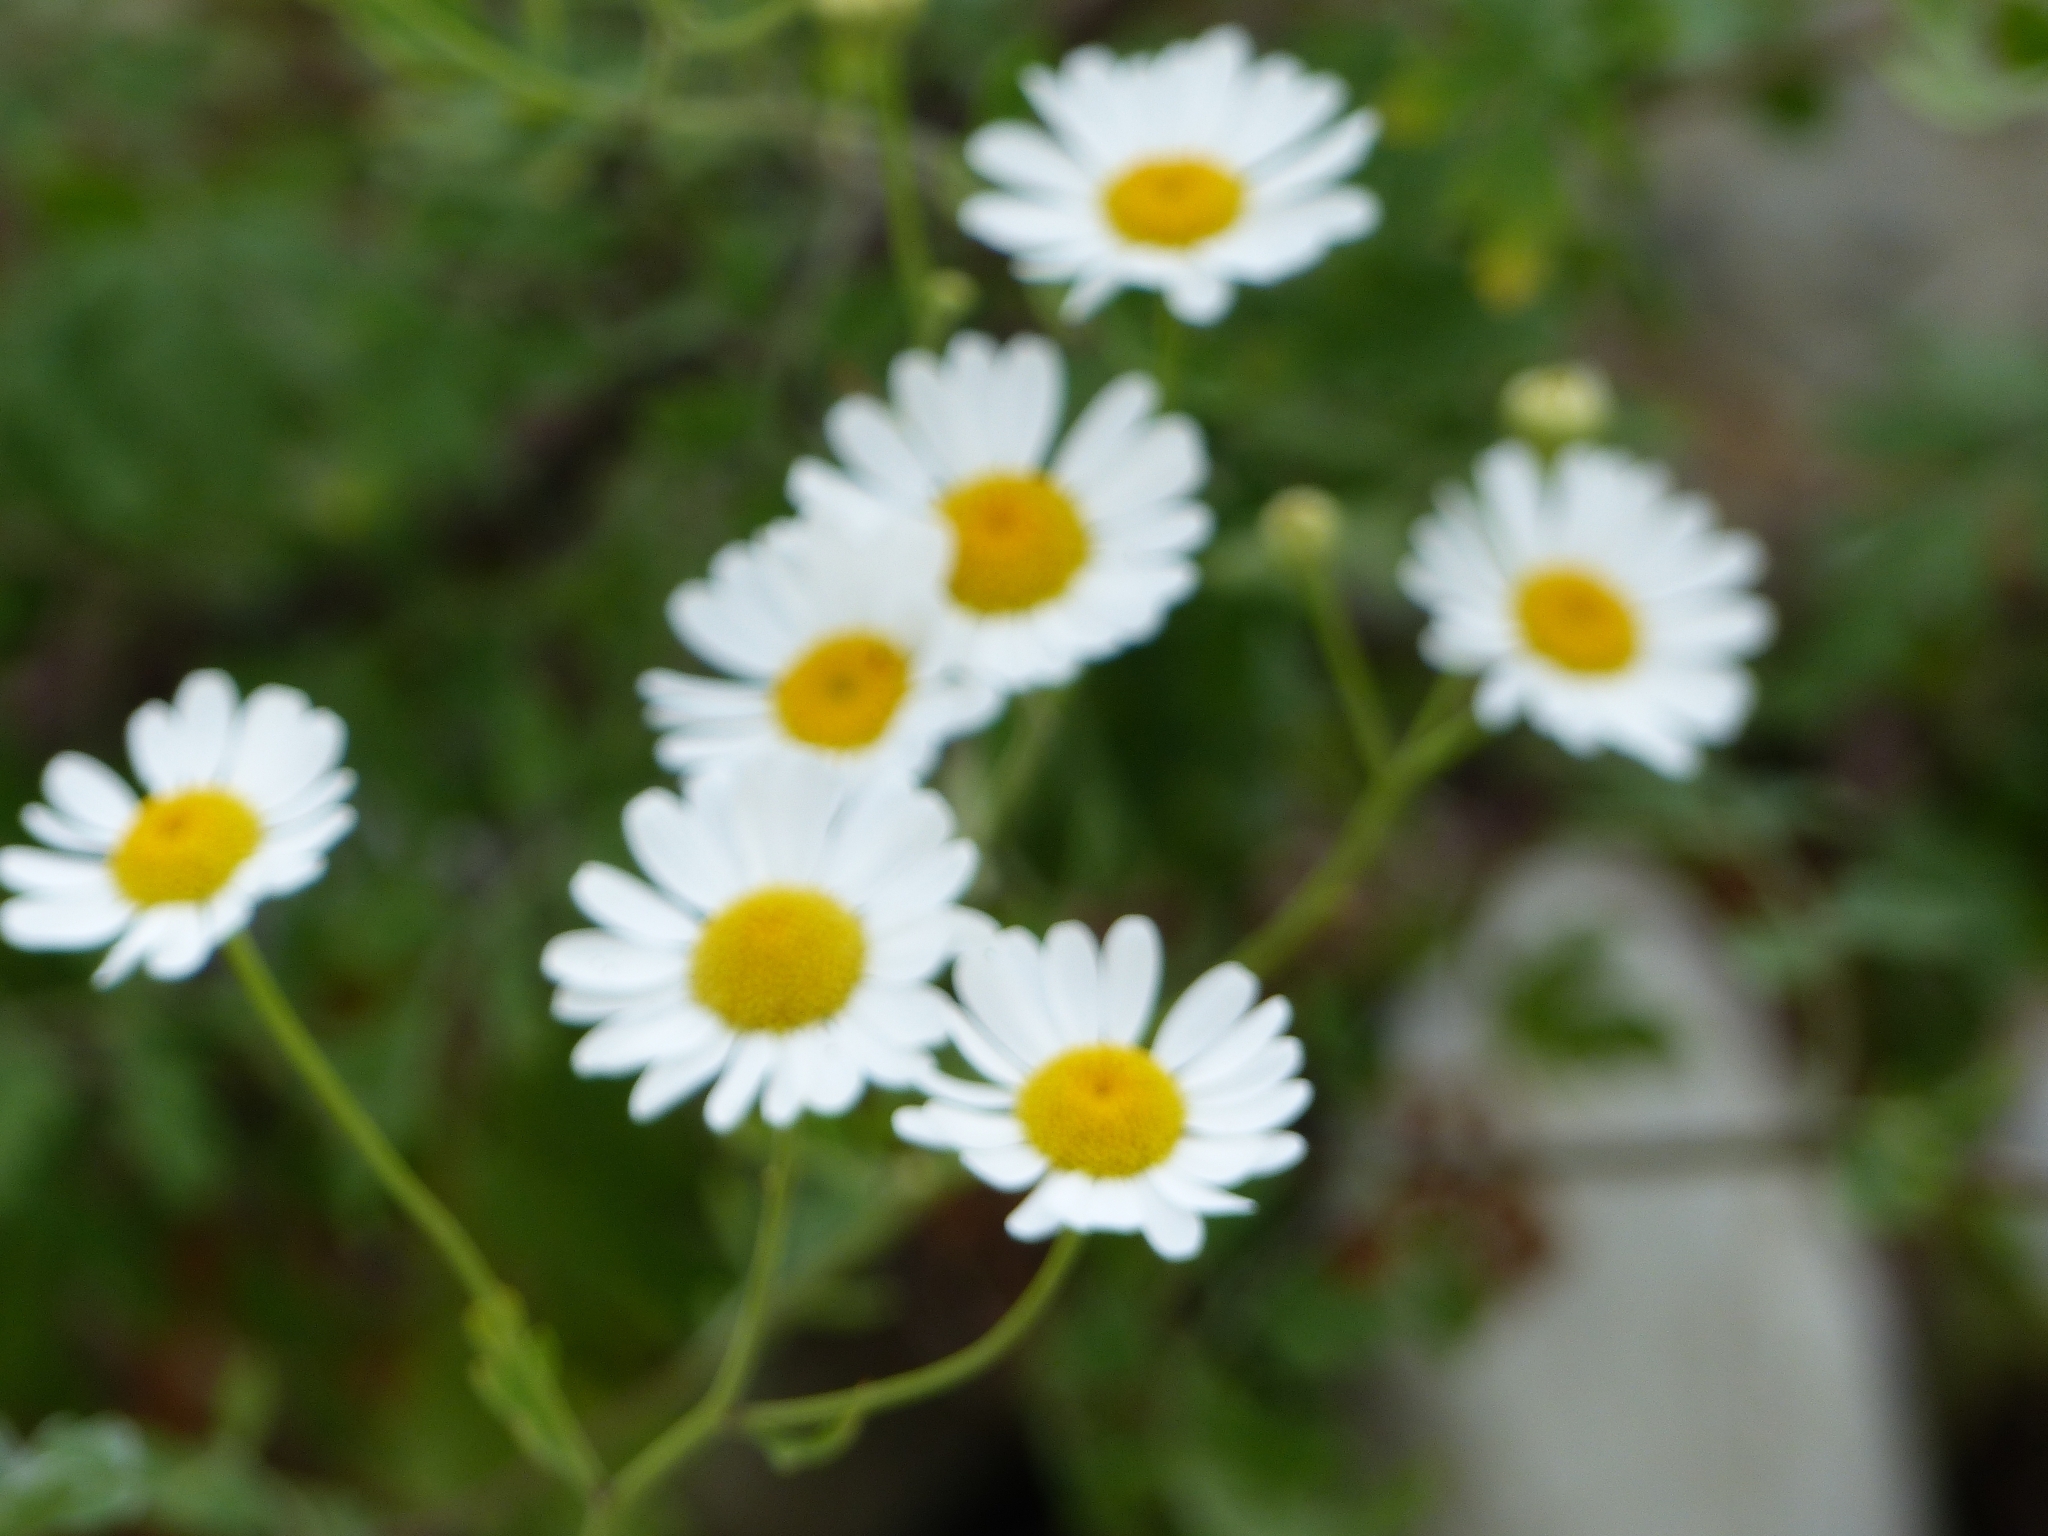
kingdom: Plantae
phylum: Tracheophyta
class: Magnoliopsida
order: Asterales
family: Asteraceae
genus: Tanacetum
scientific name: Tanacetum partheniifolium
